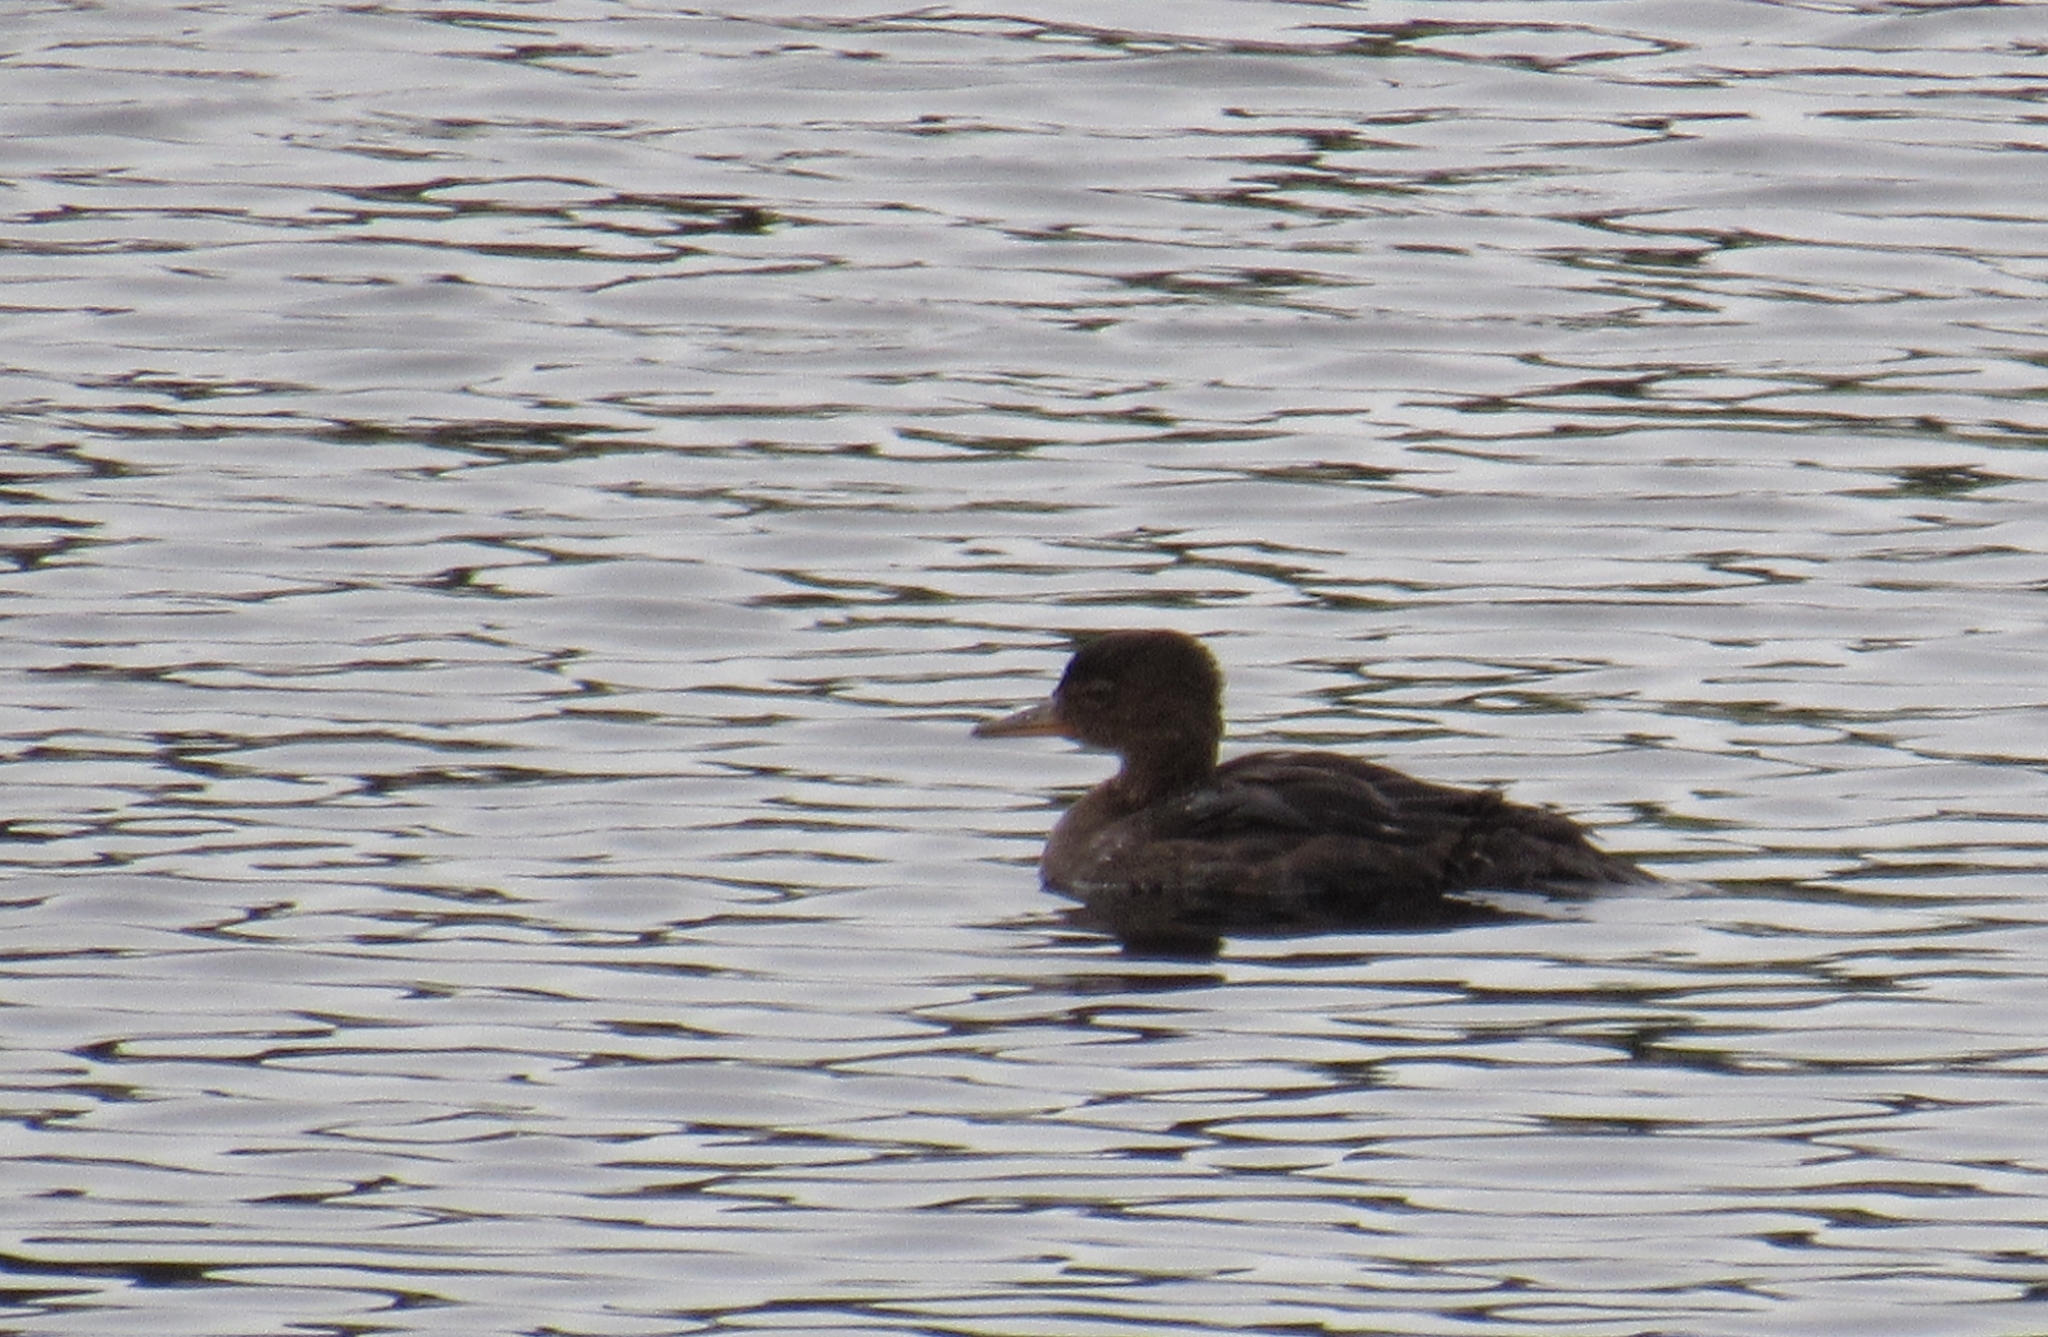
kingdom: Animalia
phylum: Chordata
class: Aves
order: Anseriformes
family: Anatidae
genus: Lophodytes
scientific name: Lophodytes cucullatus
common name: Hooded merganser
